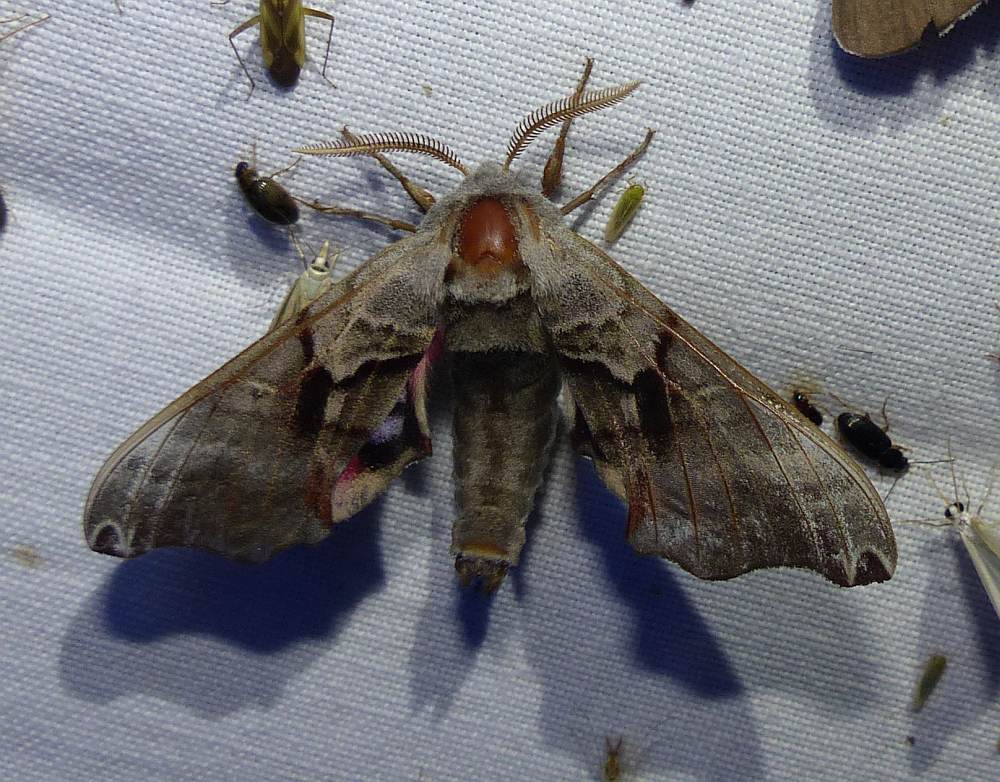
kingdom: Animalia
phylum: Arthropoda
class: Insecta
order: Lepidoptera
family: Sphingidae
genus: Smerinthus
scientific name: Smerinthus jamaicensis
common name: Twin spotted sphinx
